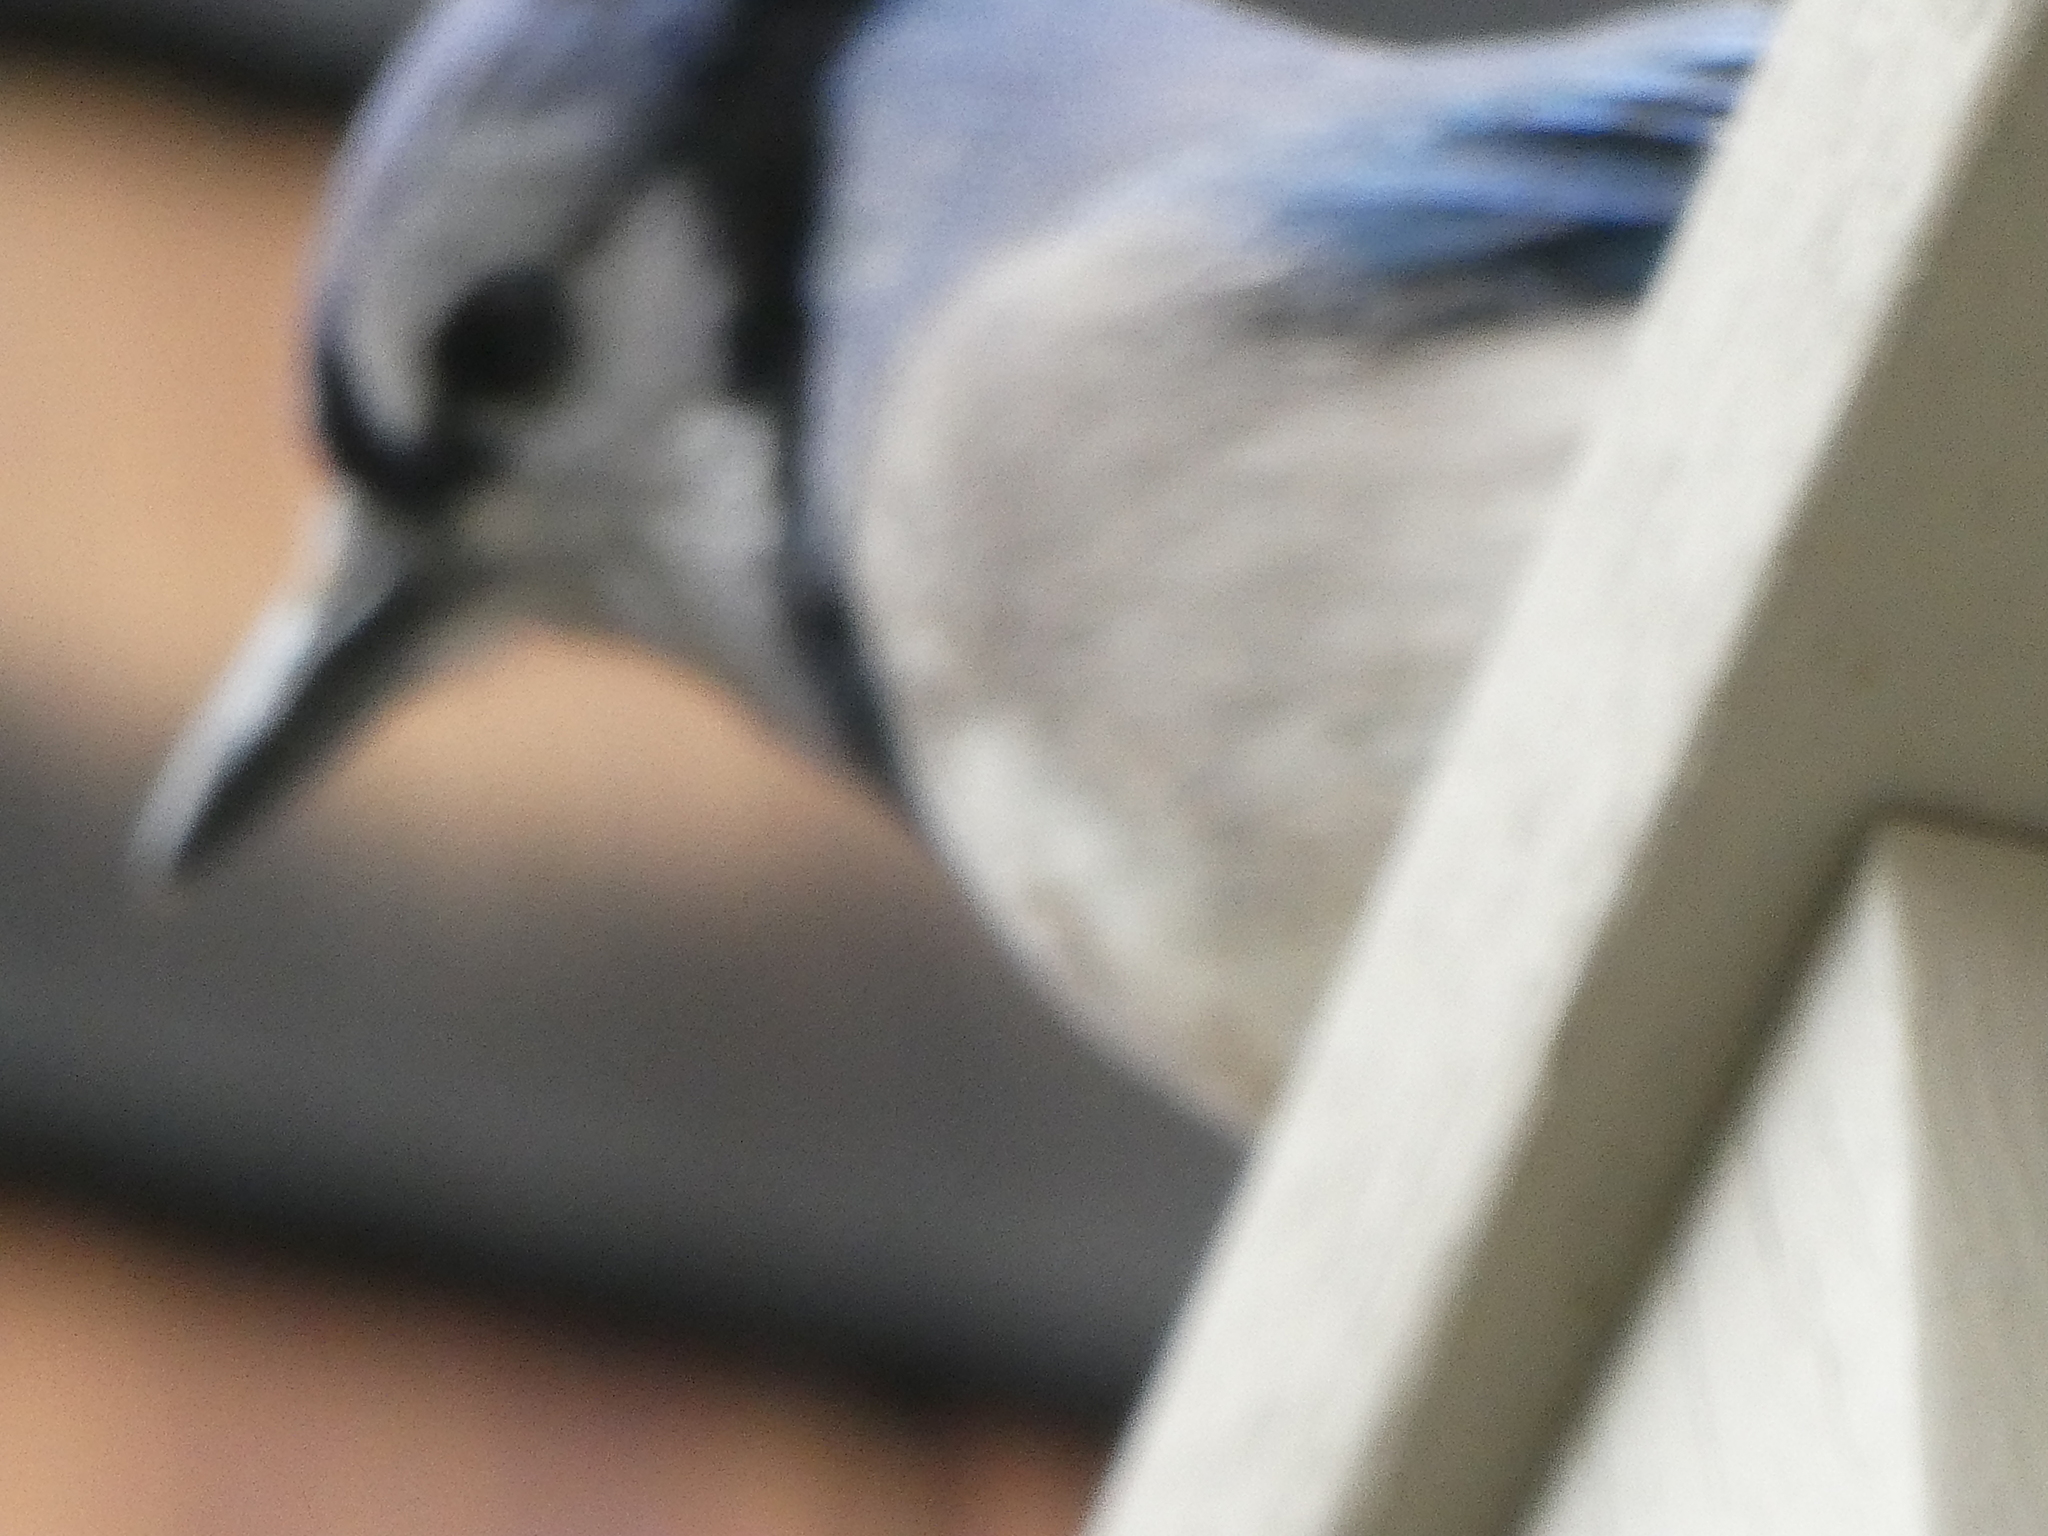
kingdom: Animalia
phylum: Chordata
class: Aves
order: Passeriformes
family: Corvidae
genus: Cyanocitta
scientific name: Cyanocitta cristata
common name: Blue jay
